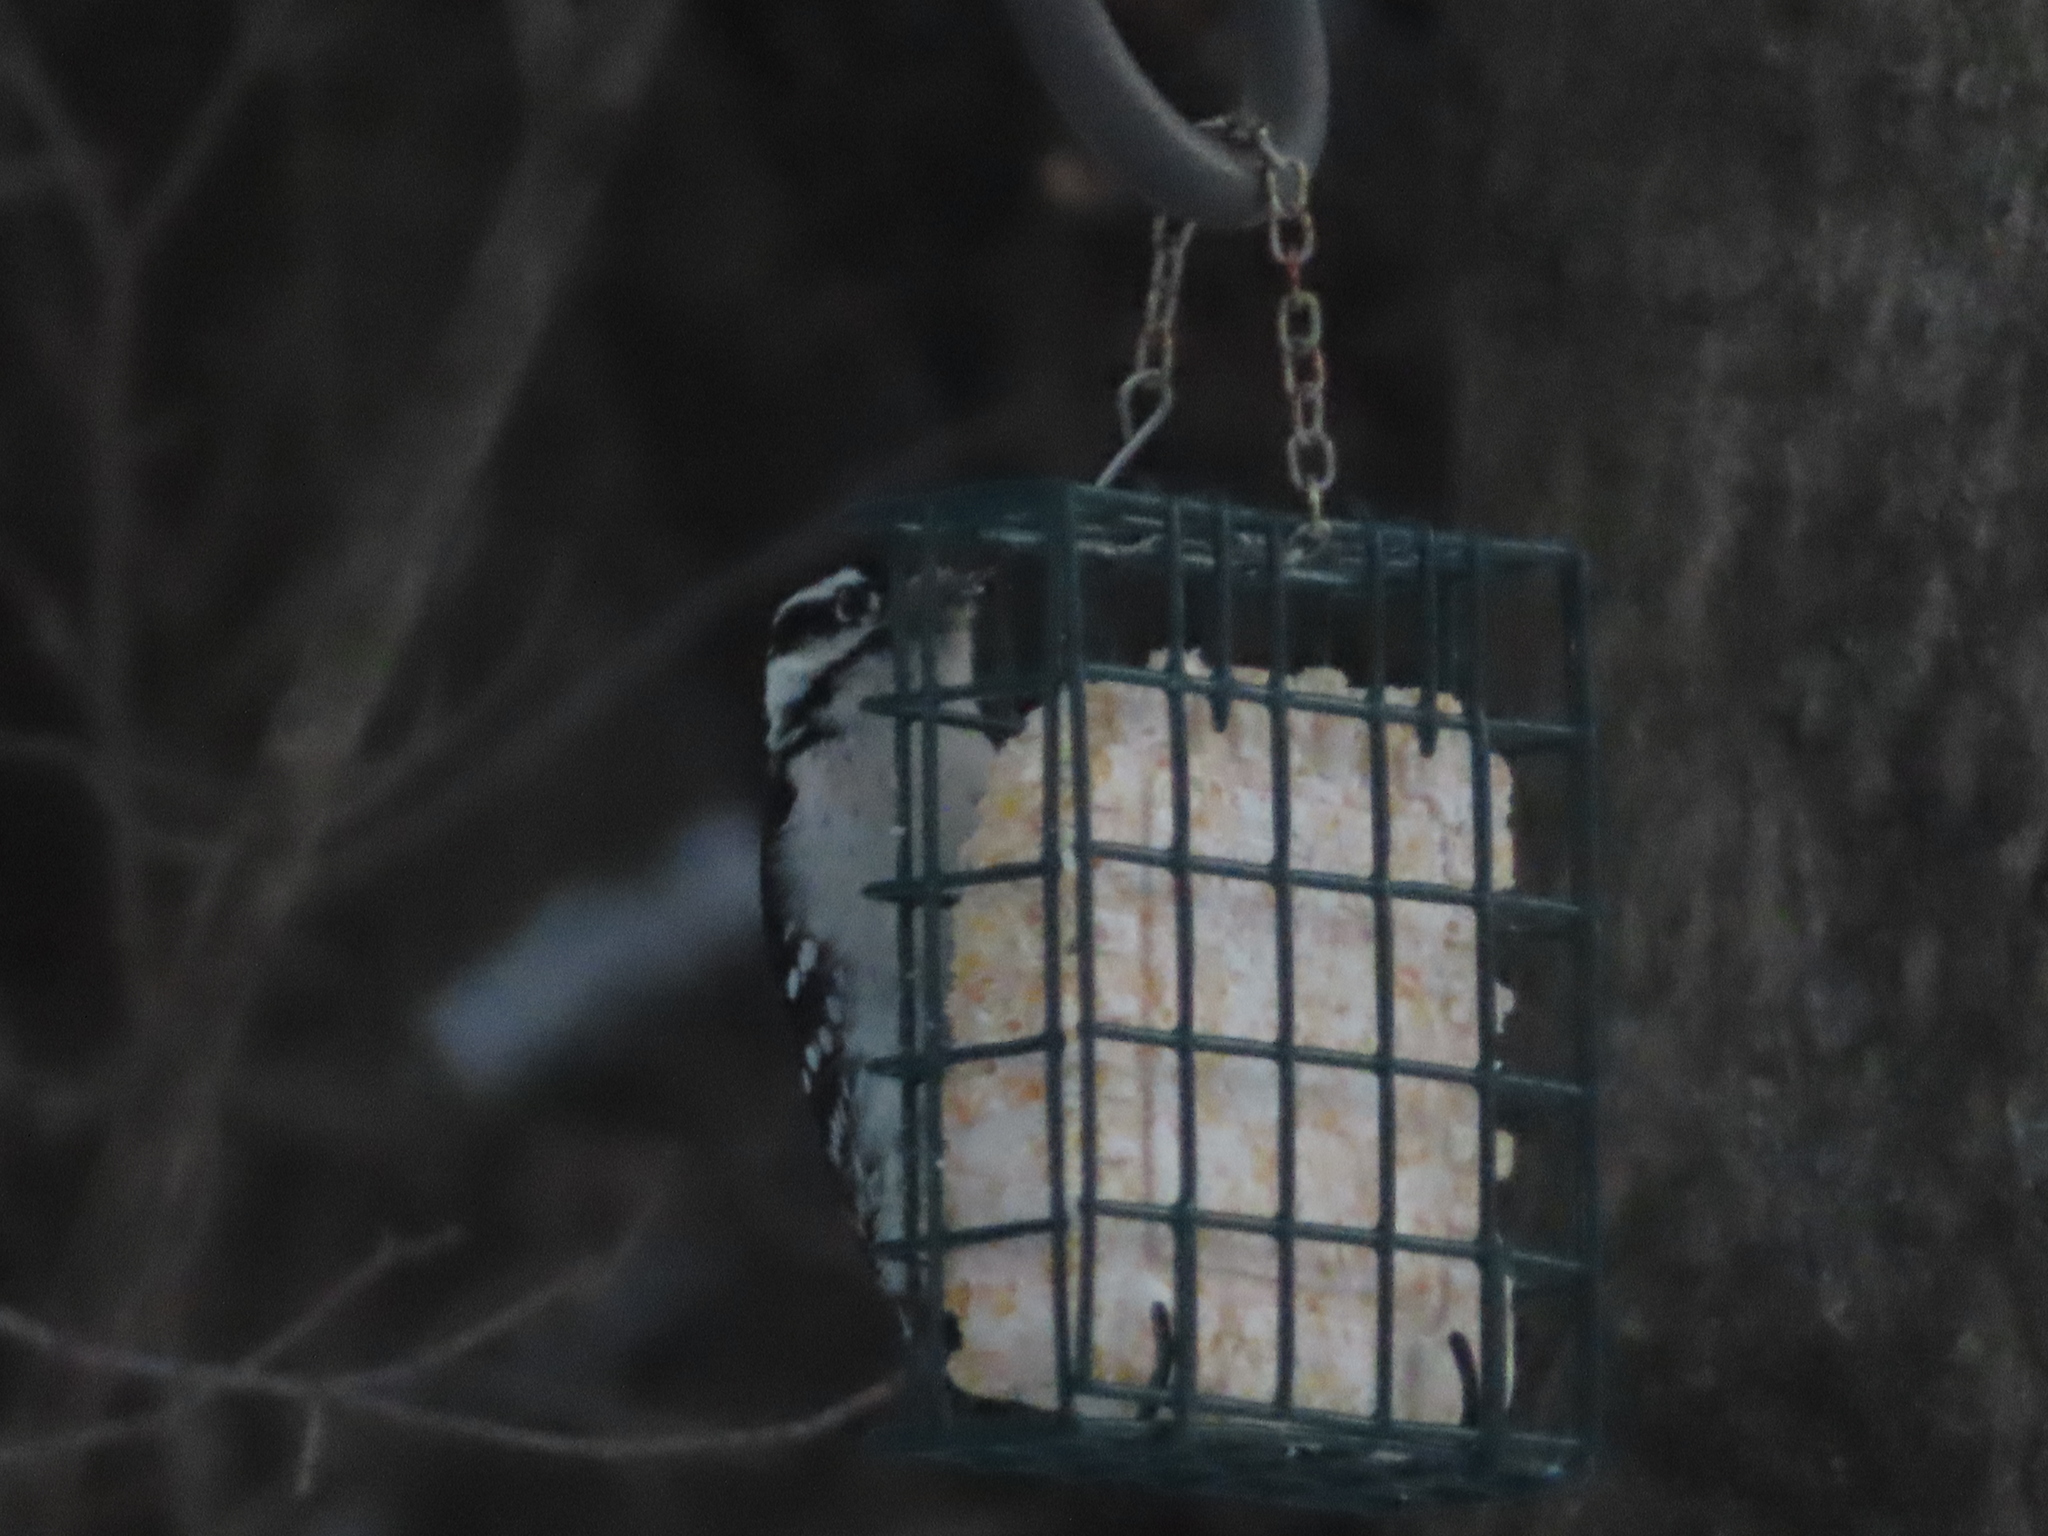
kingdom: Animalia
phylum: Chordata
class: Aves
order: Piciformes
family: Picidae
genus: Dryobates
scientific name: Dryobates pubescens
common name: Downy woodpecker
